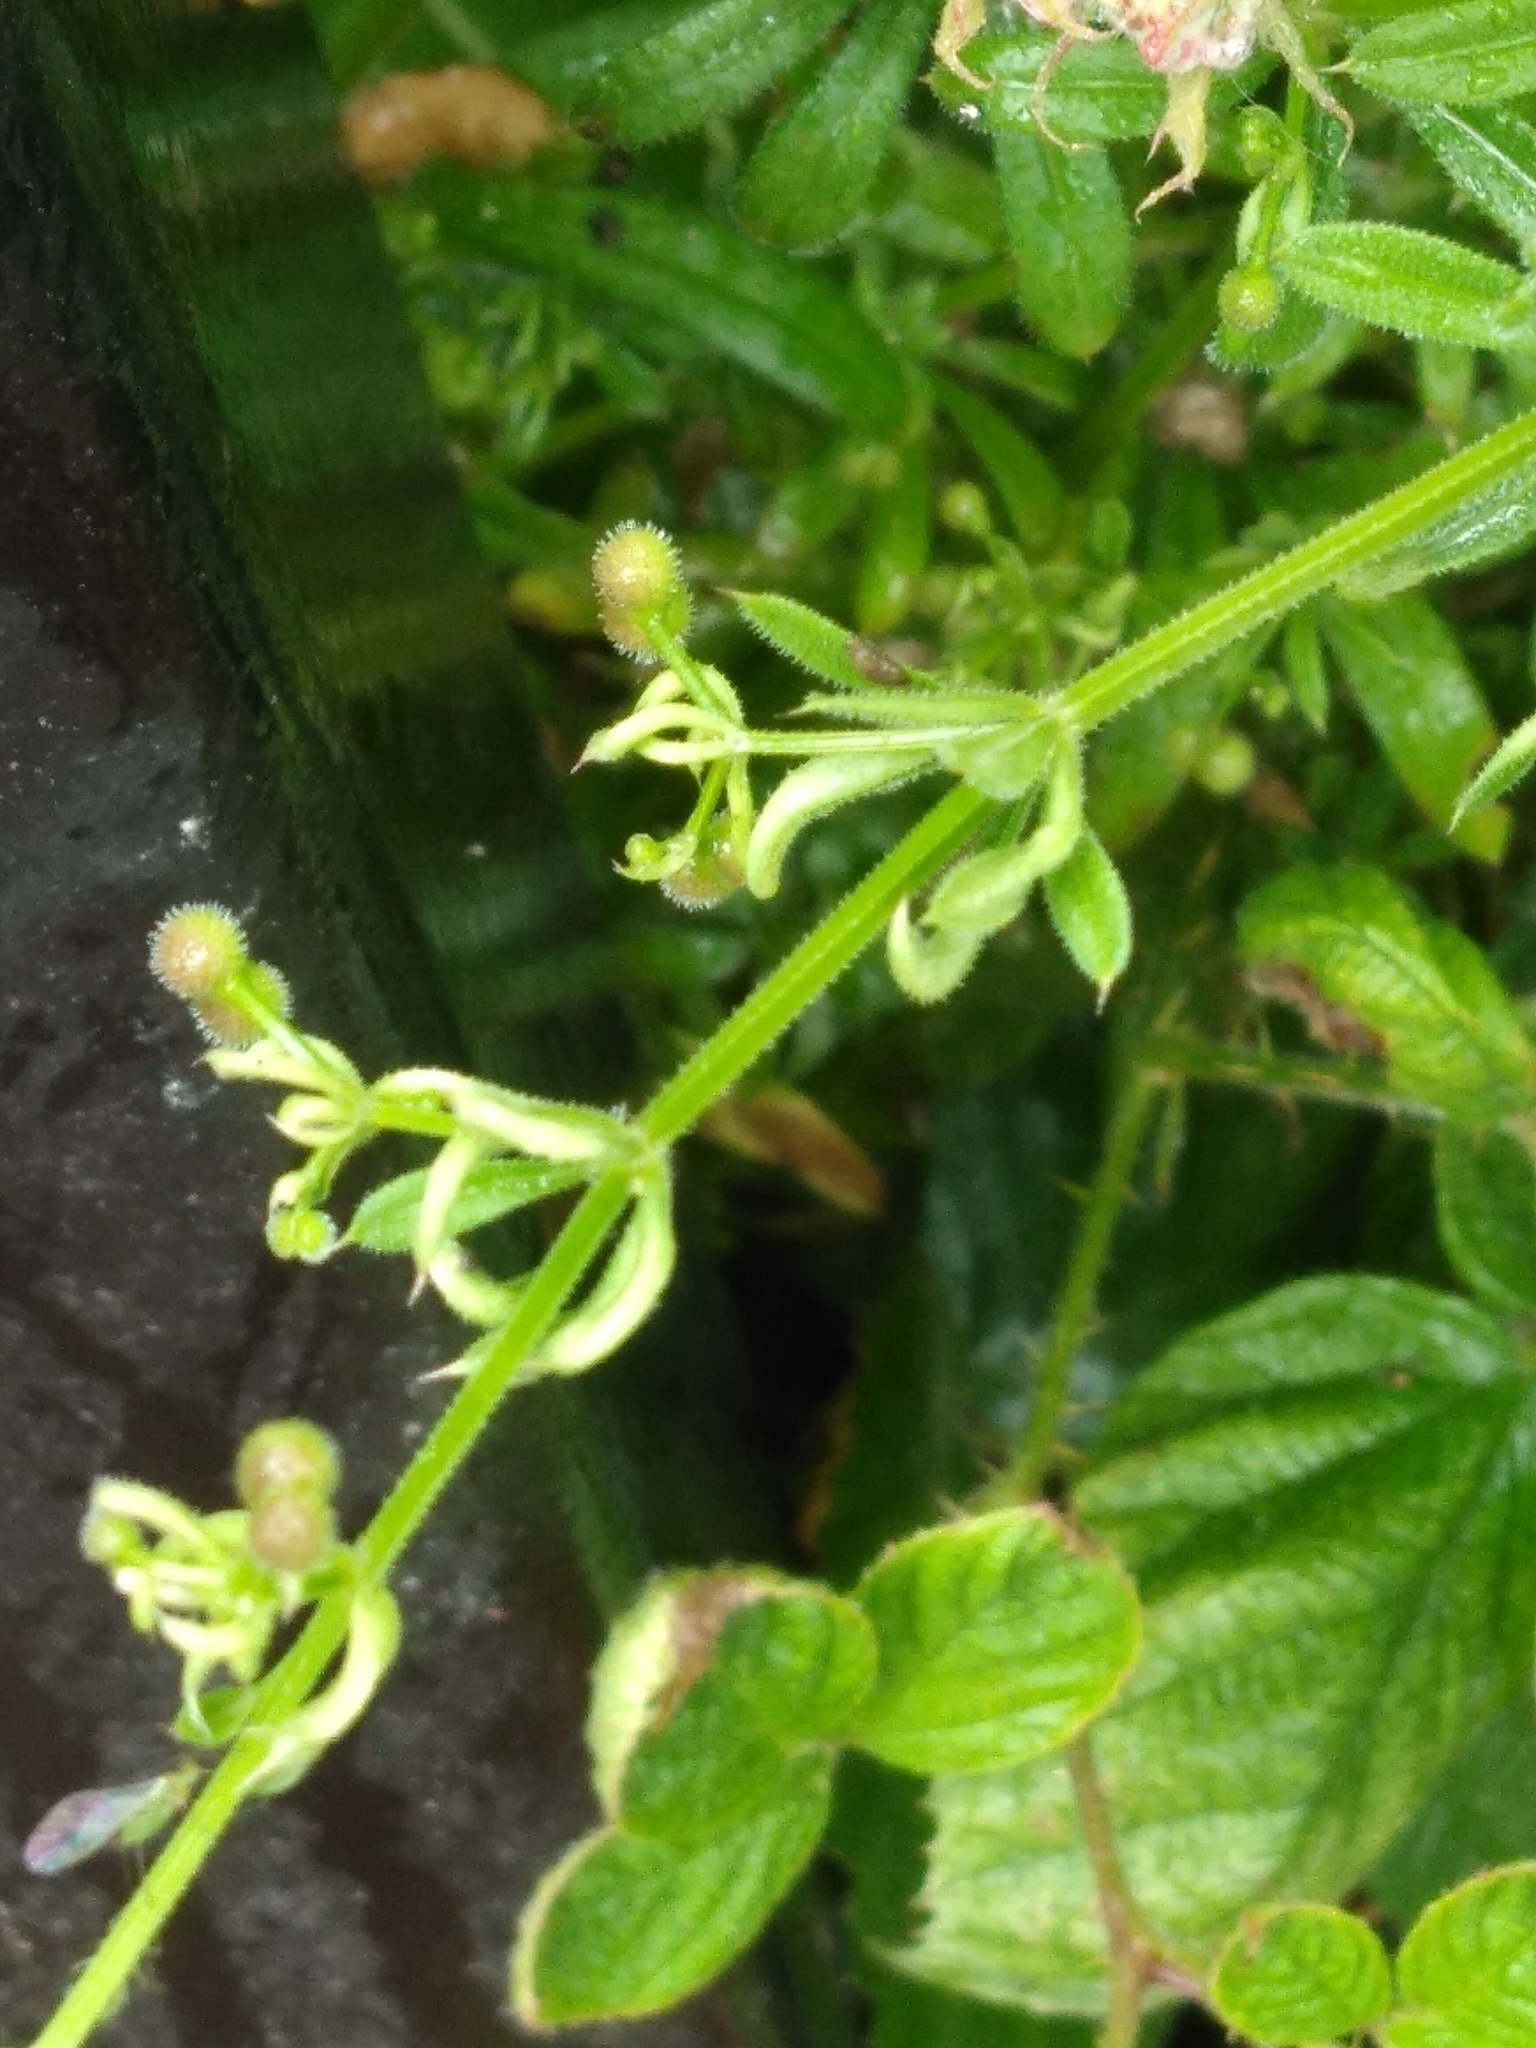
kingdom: Animalia
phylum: Arthropoda
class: Arachnida
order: Trombidiformes
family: Eriophyidae
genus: Cecidophyes
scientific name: Cecidophyes rouhollahi
